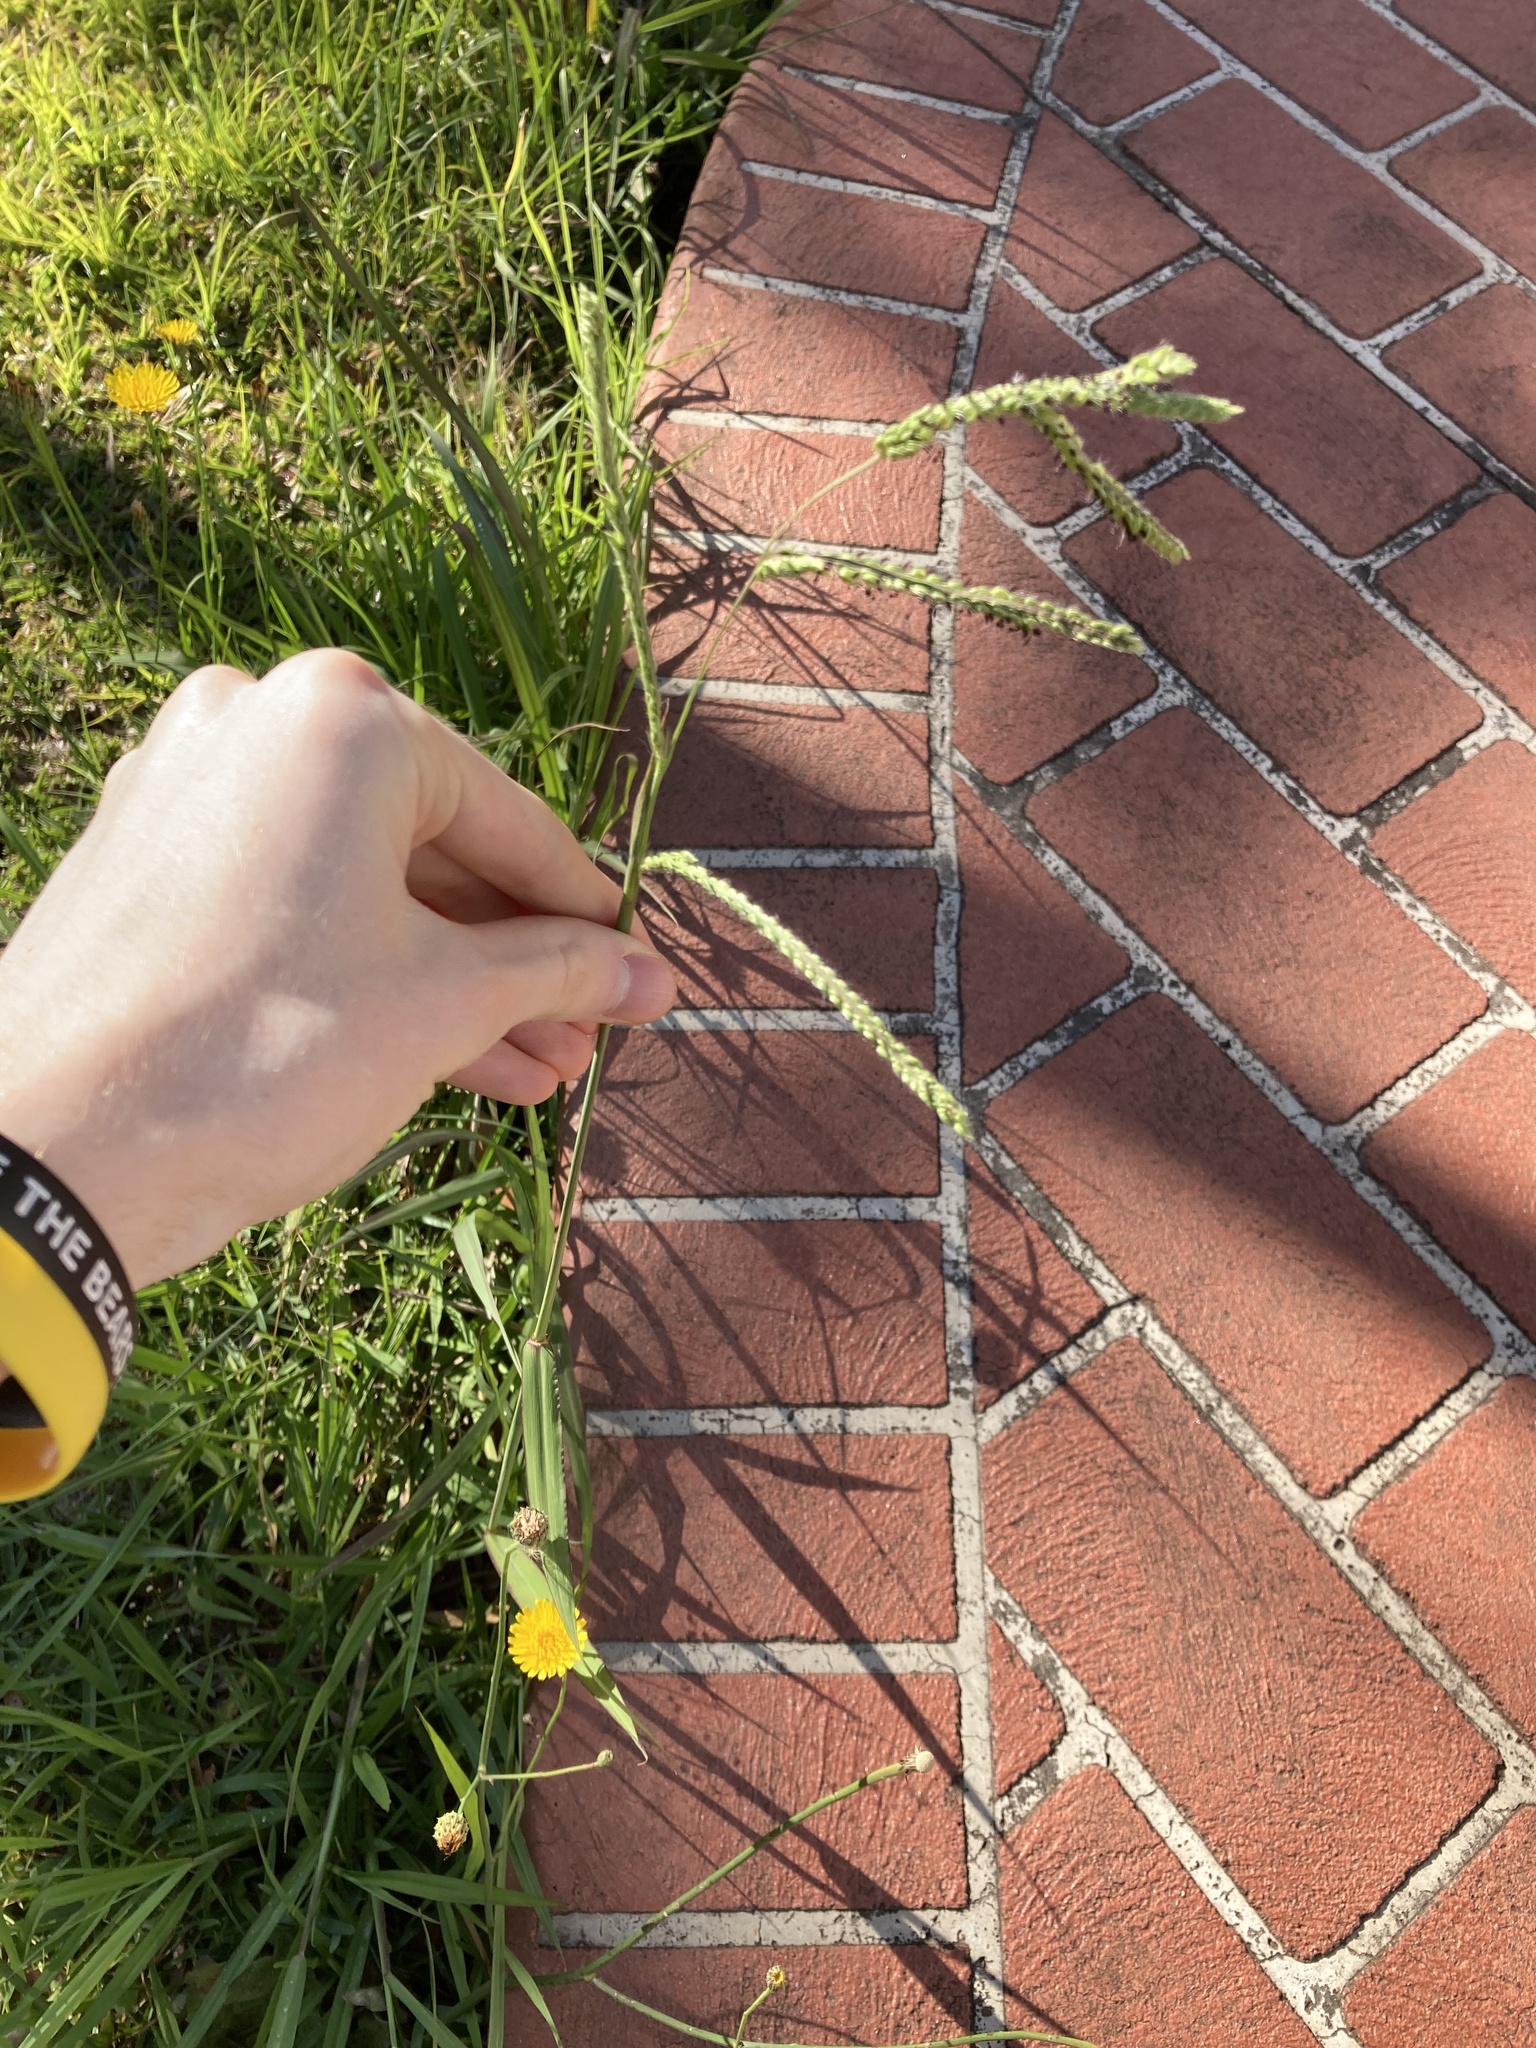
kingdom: Plantae
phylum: Tracheophyta
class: Liliopsida
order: Poales
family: Poaceae
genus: Paspalum
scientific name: Paspalum dilatatum
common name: Dallisgrass
